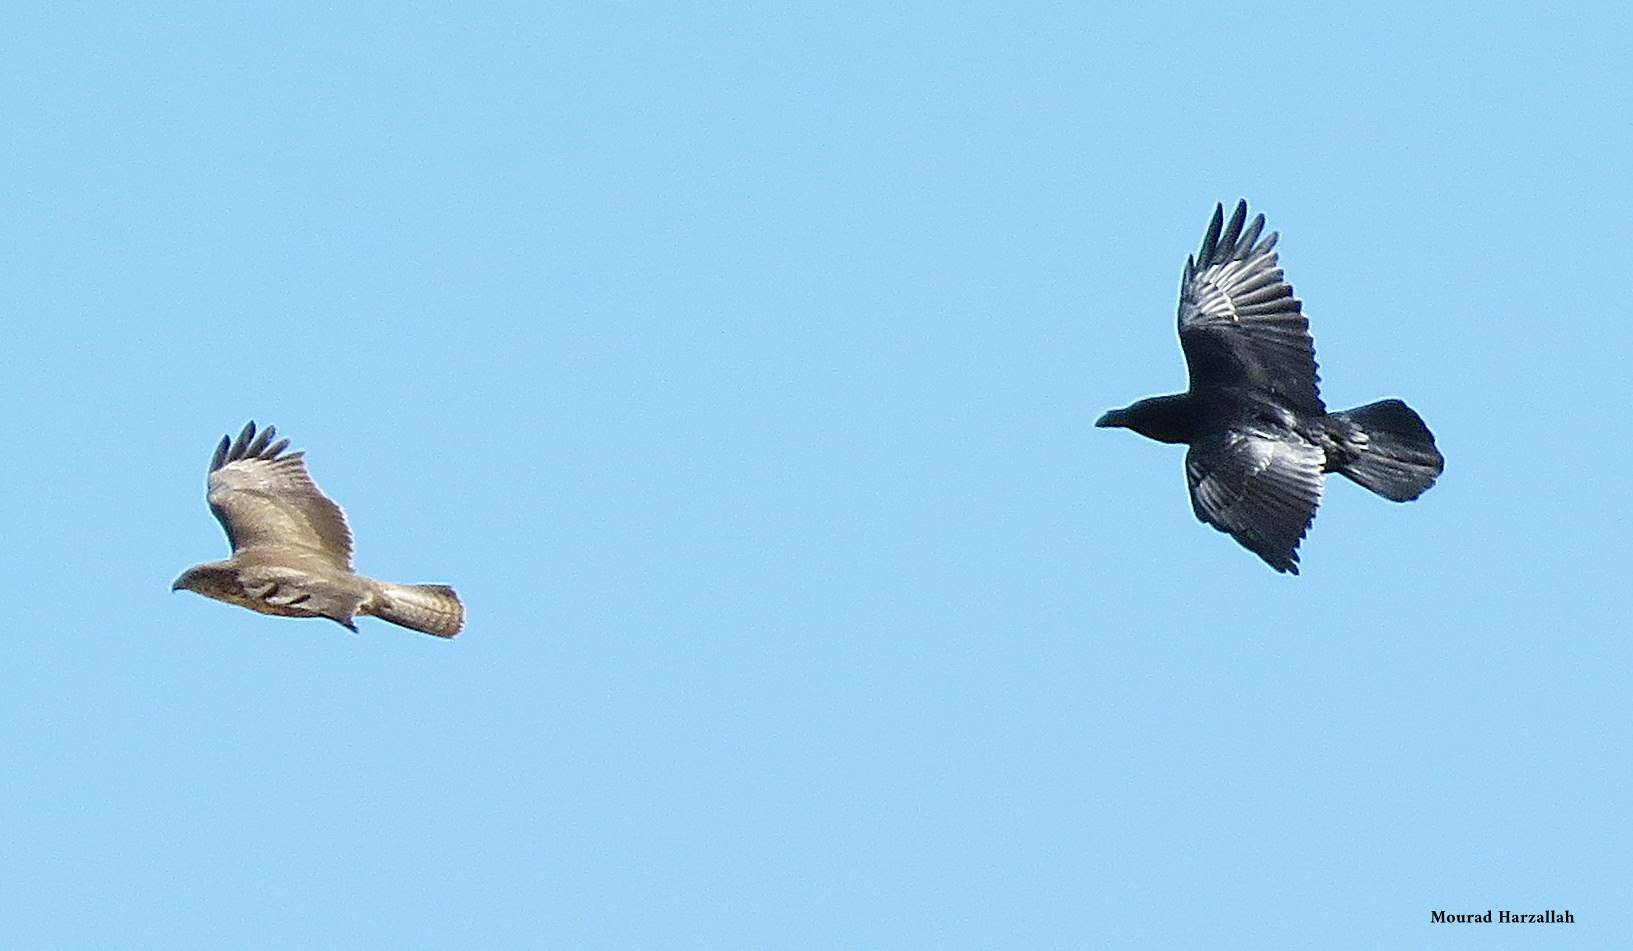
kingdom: Animalia
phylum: Chordata
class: Aves
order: Accipitriformes
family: Accipitridae
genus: Buteo
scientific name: Buteo rufinus
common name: Long-legged buzzard
